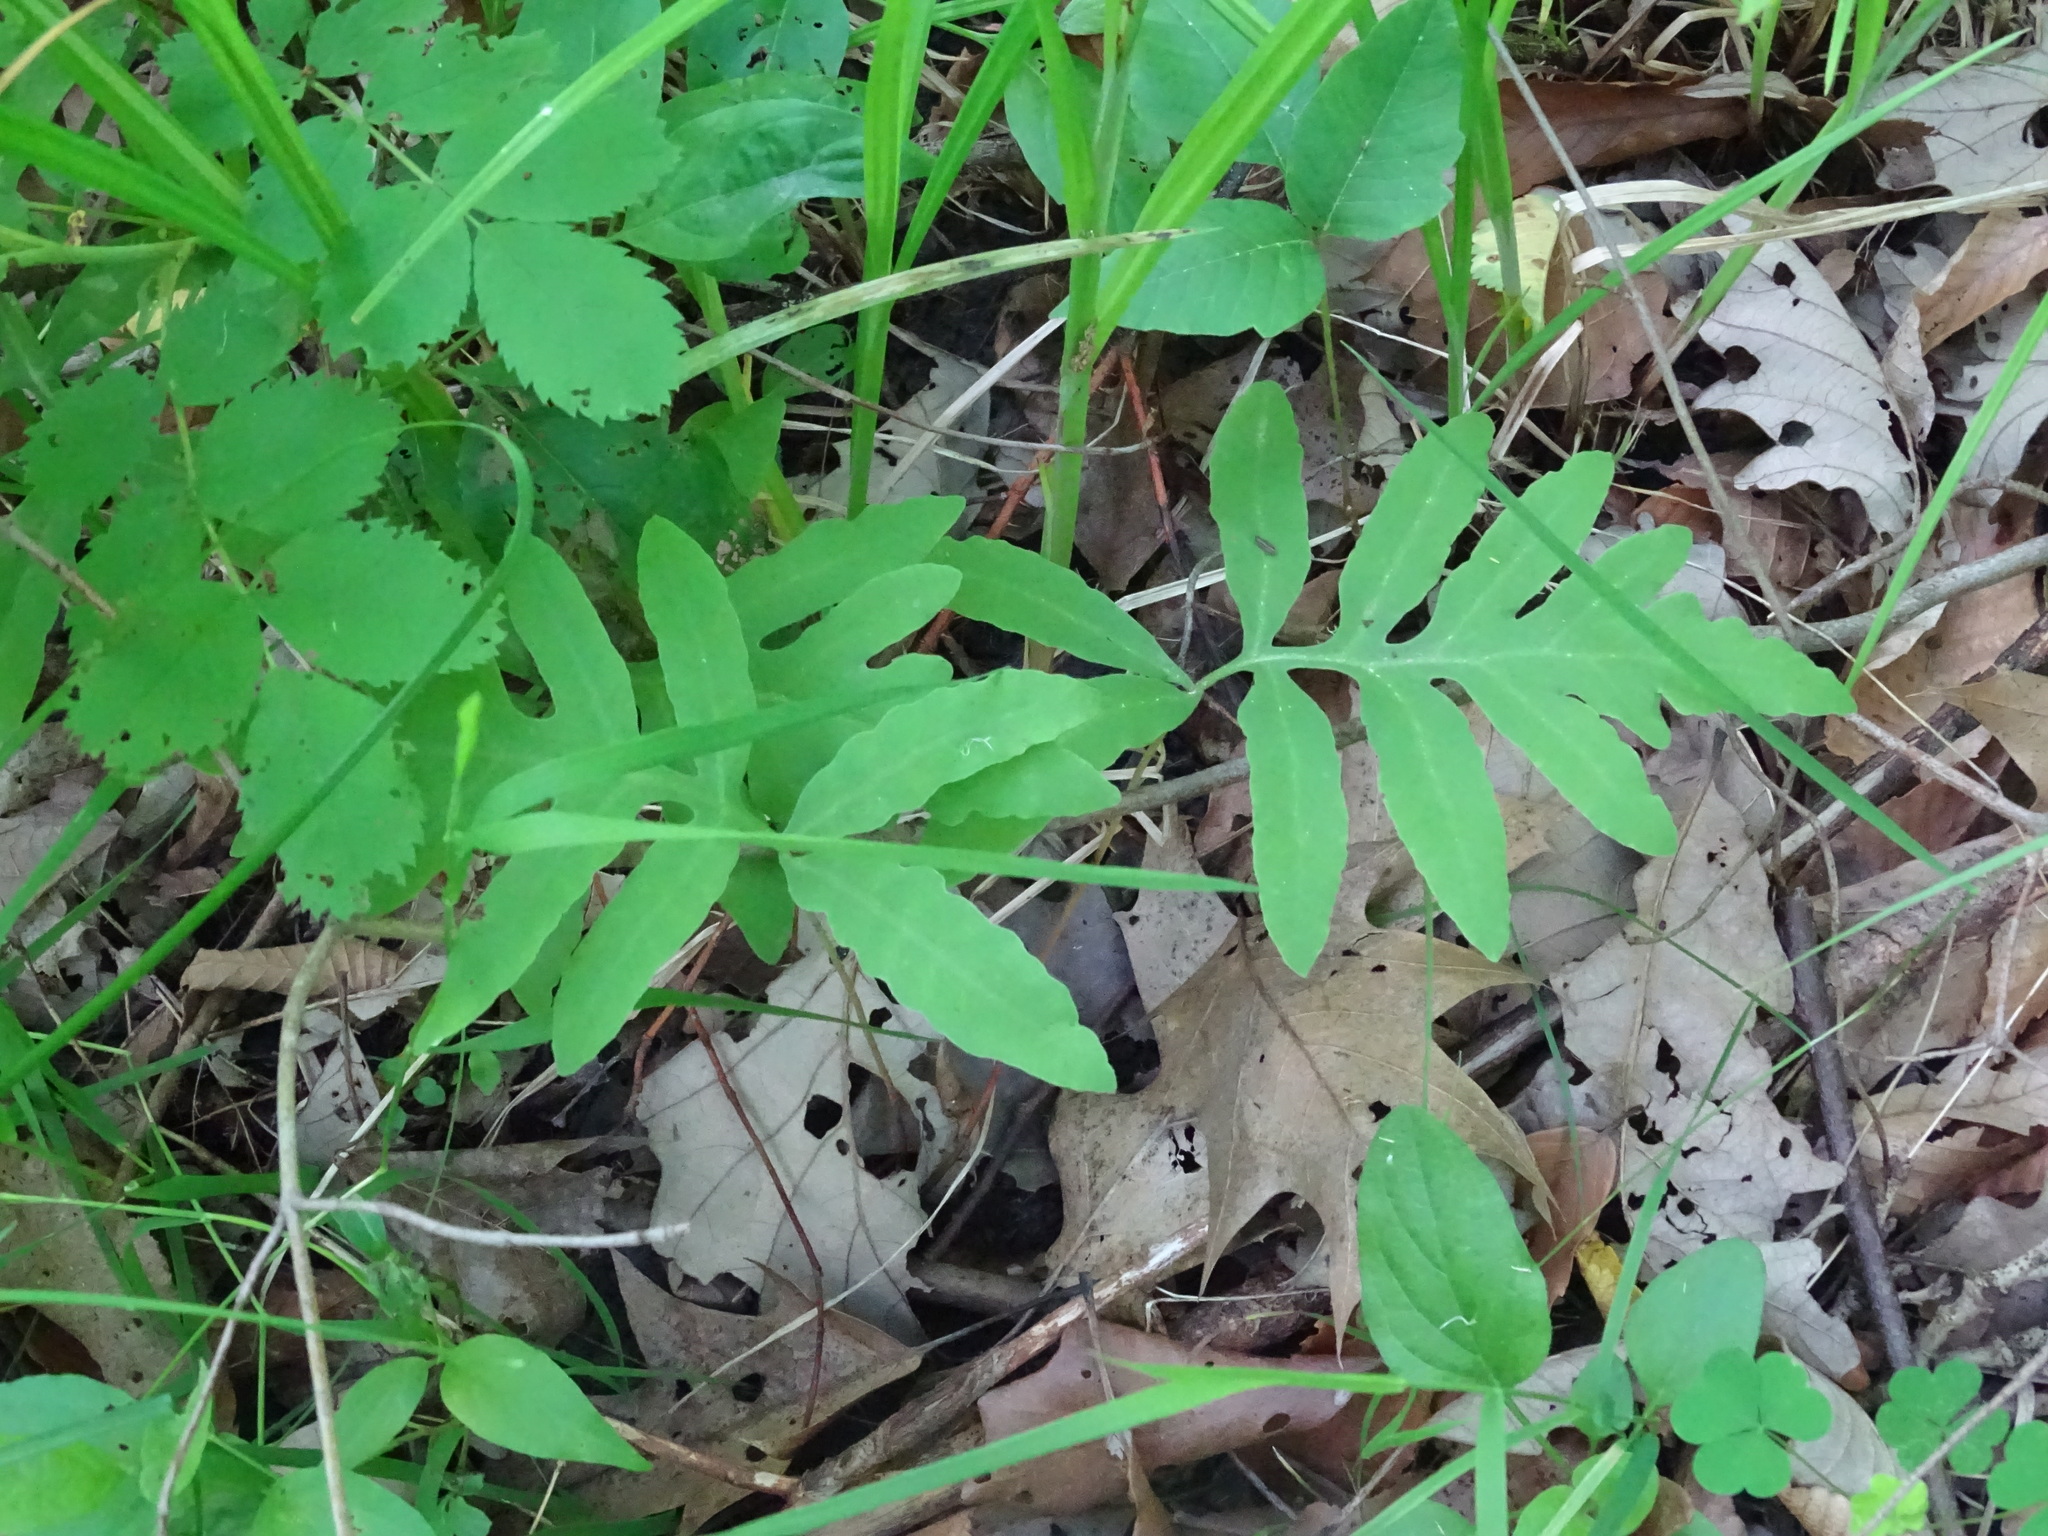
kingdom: Plantae
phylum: Tracheophyta
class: Polypodiopsida
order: Polypodiales
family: Onocleaceae
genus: Onoclea
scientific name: Onoclea sensibilis
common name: Sensitive fern
